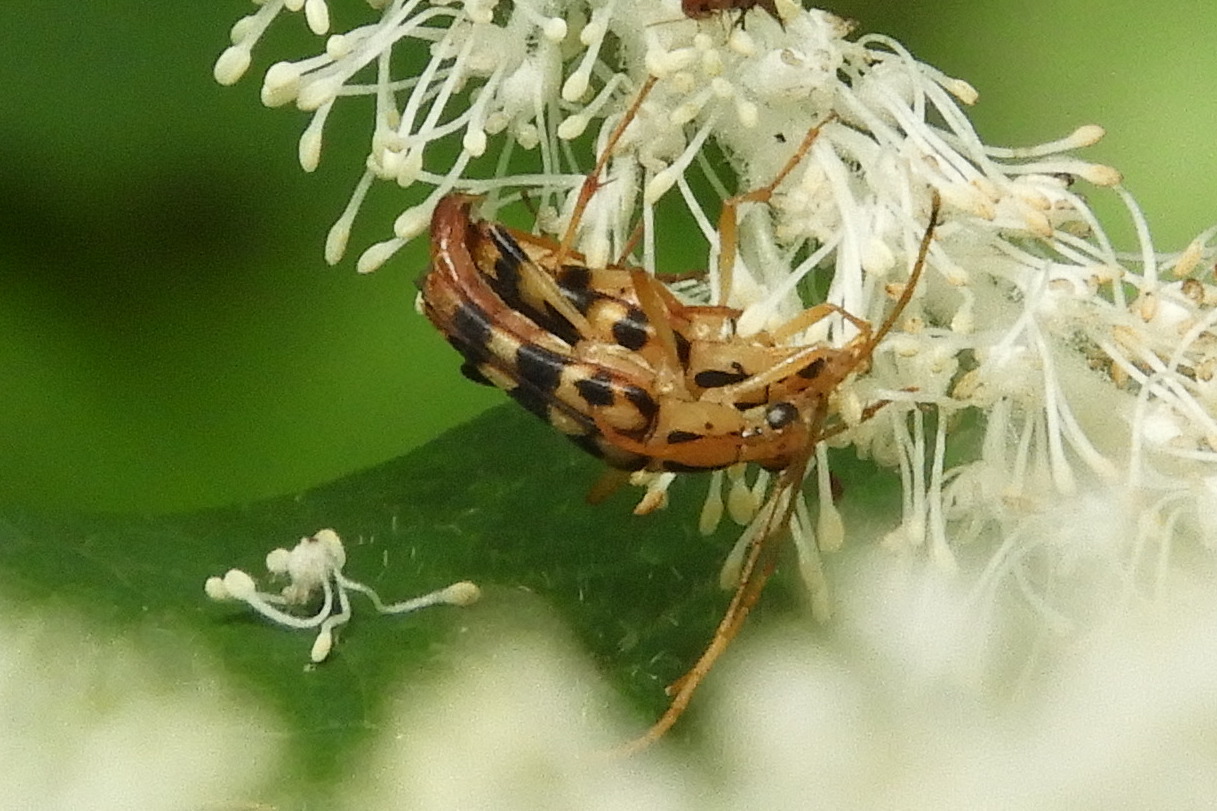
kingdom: Animalia
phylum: Arthropoda
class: Insecta
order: Coleoptera
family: Cerambycidae
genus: Strangalia
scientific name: Strangalia luteicornis
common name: Yellow-horned flower longhorn beetle
